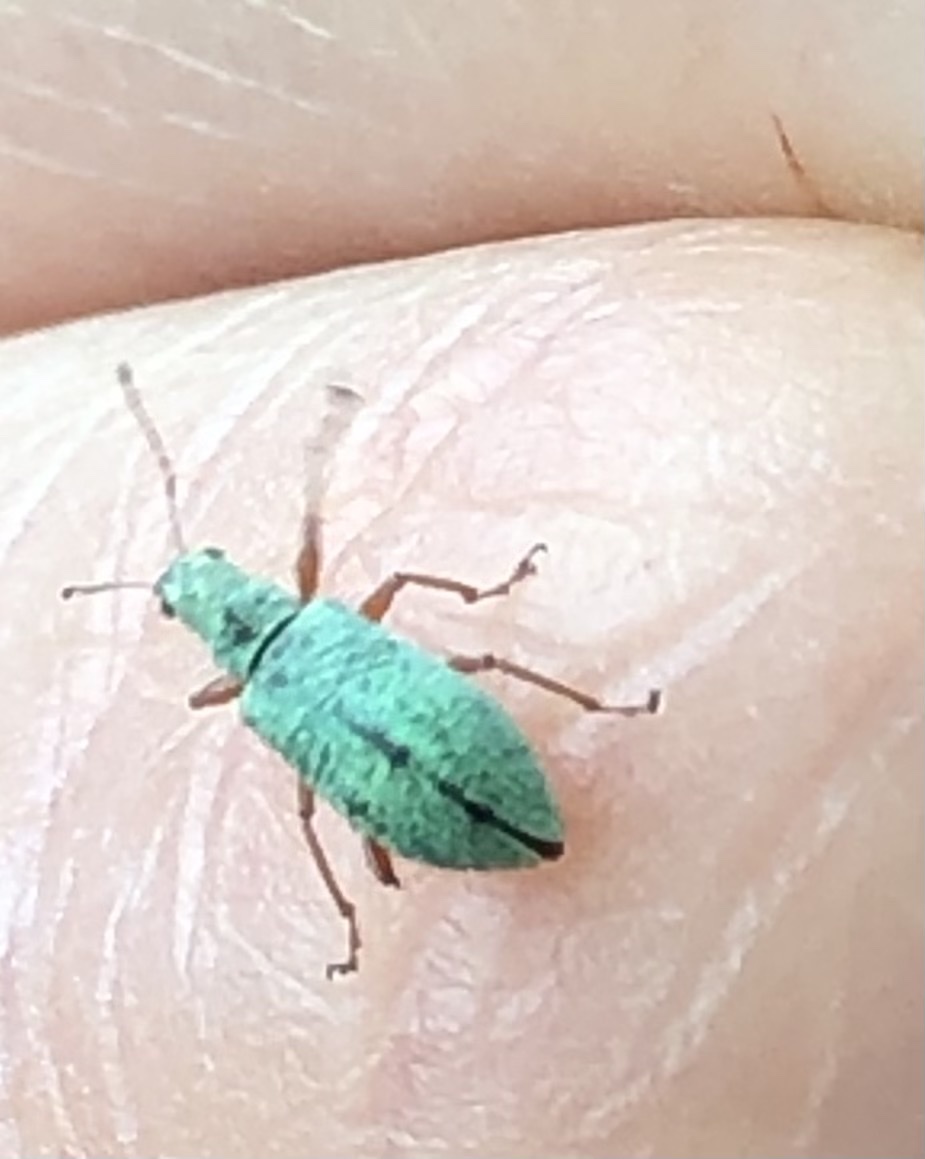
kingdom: Animalia
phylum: Arthropoda
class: Insecta
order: Coleoptera
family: Curculionidae
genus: Polydrusus
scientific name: Polydrusus impressifrons
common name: Weevil
